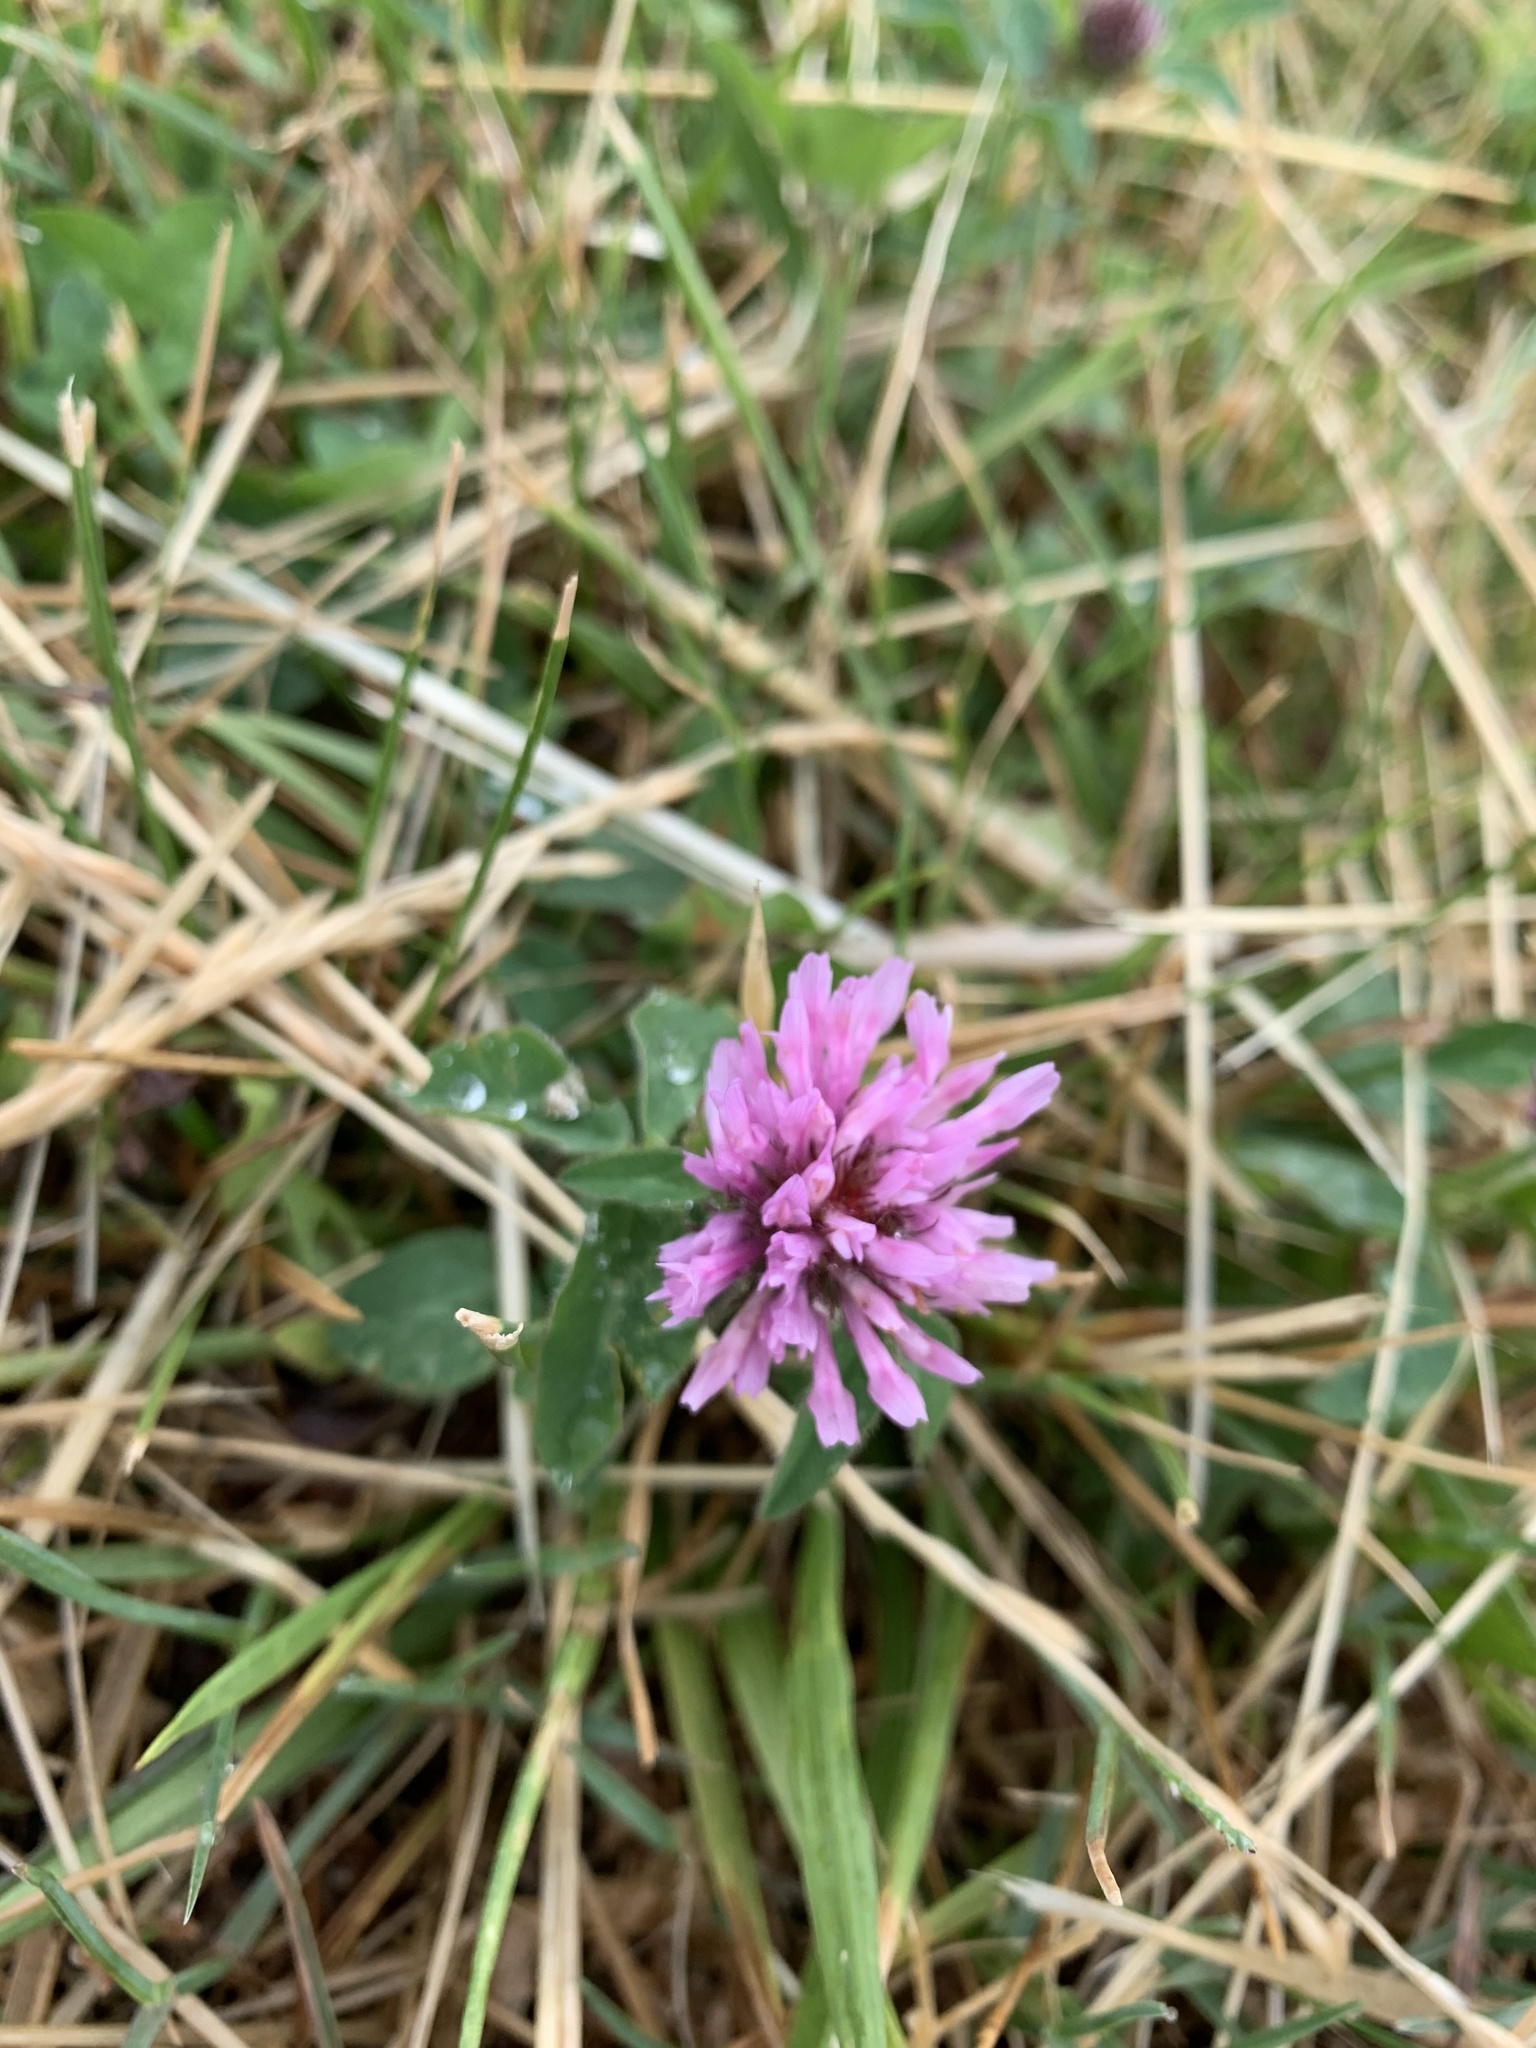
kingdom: Plantae
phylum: Tracheophyta
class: Magnoliopsida
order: Fabales
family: Fabaceae
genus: Trifolium
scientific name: Trifolium pratense
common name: Red clover
